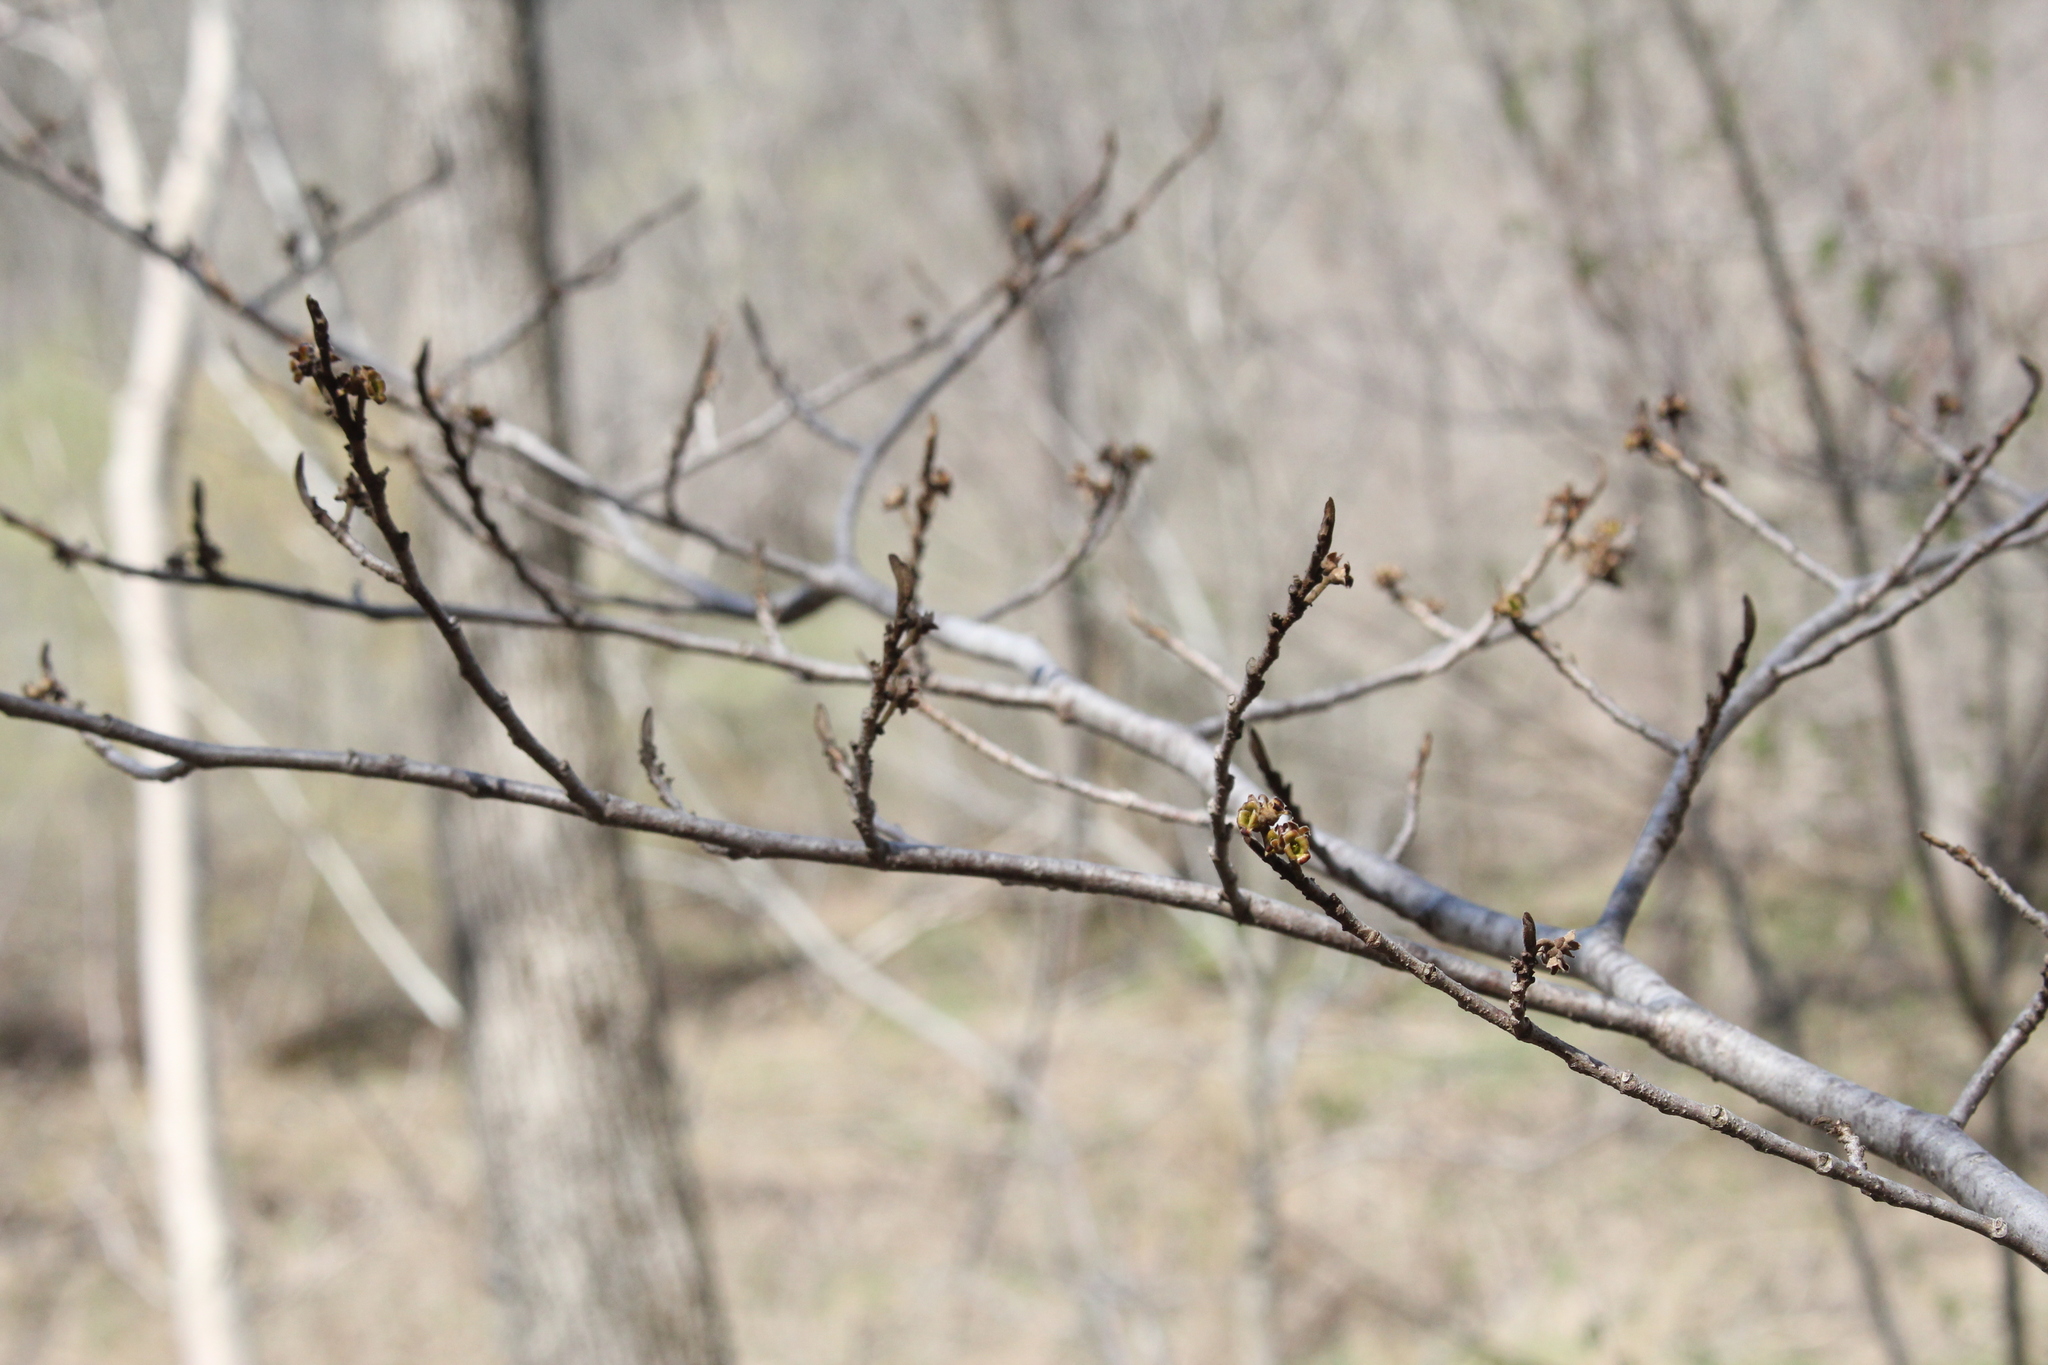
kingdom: Plantae
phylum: Tracheophyta
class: Magnoliopsida
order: Saxifragales
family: Hamamelidaceae
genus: Hamamelis
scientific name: Hamamelis virginiana
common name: Witch-hazel
